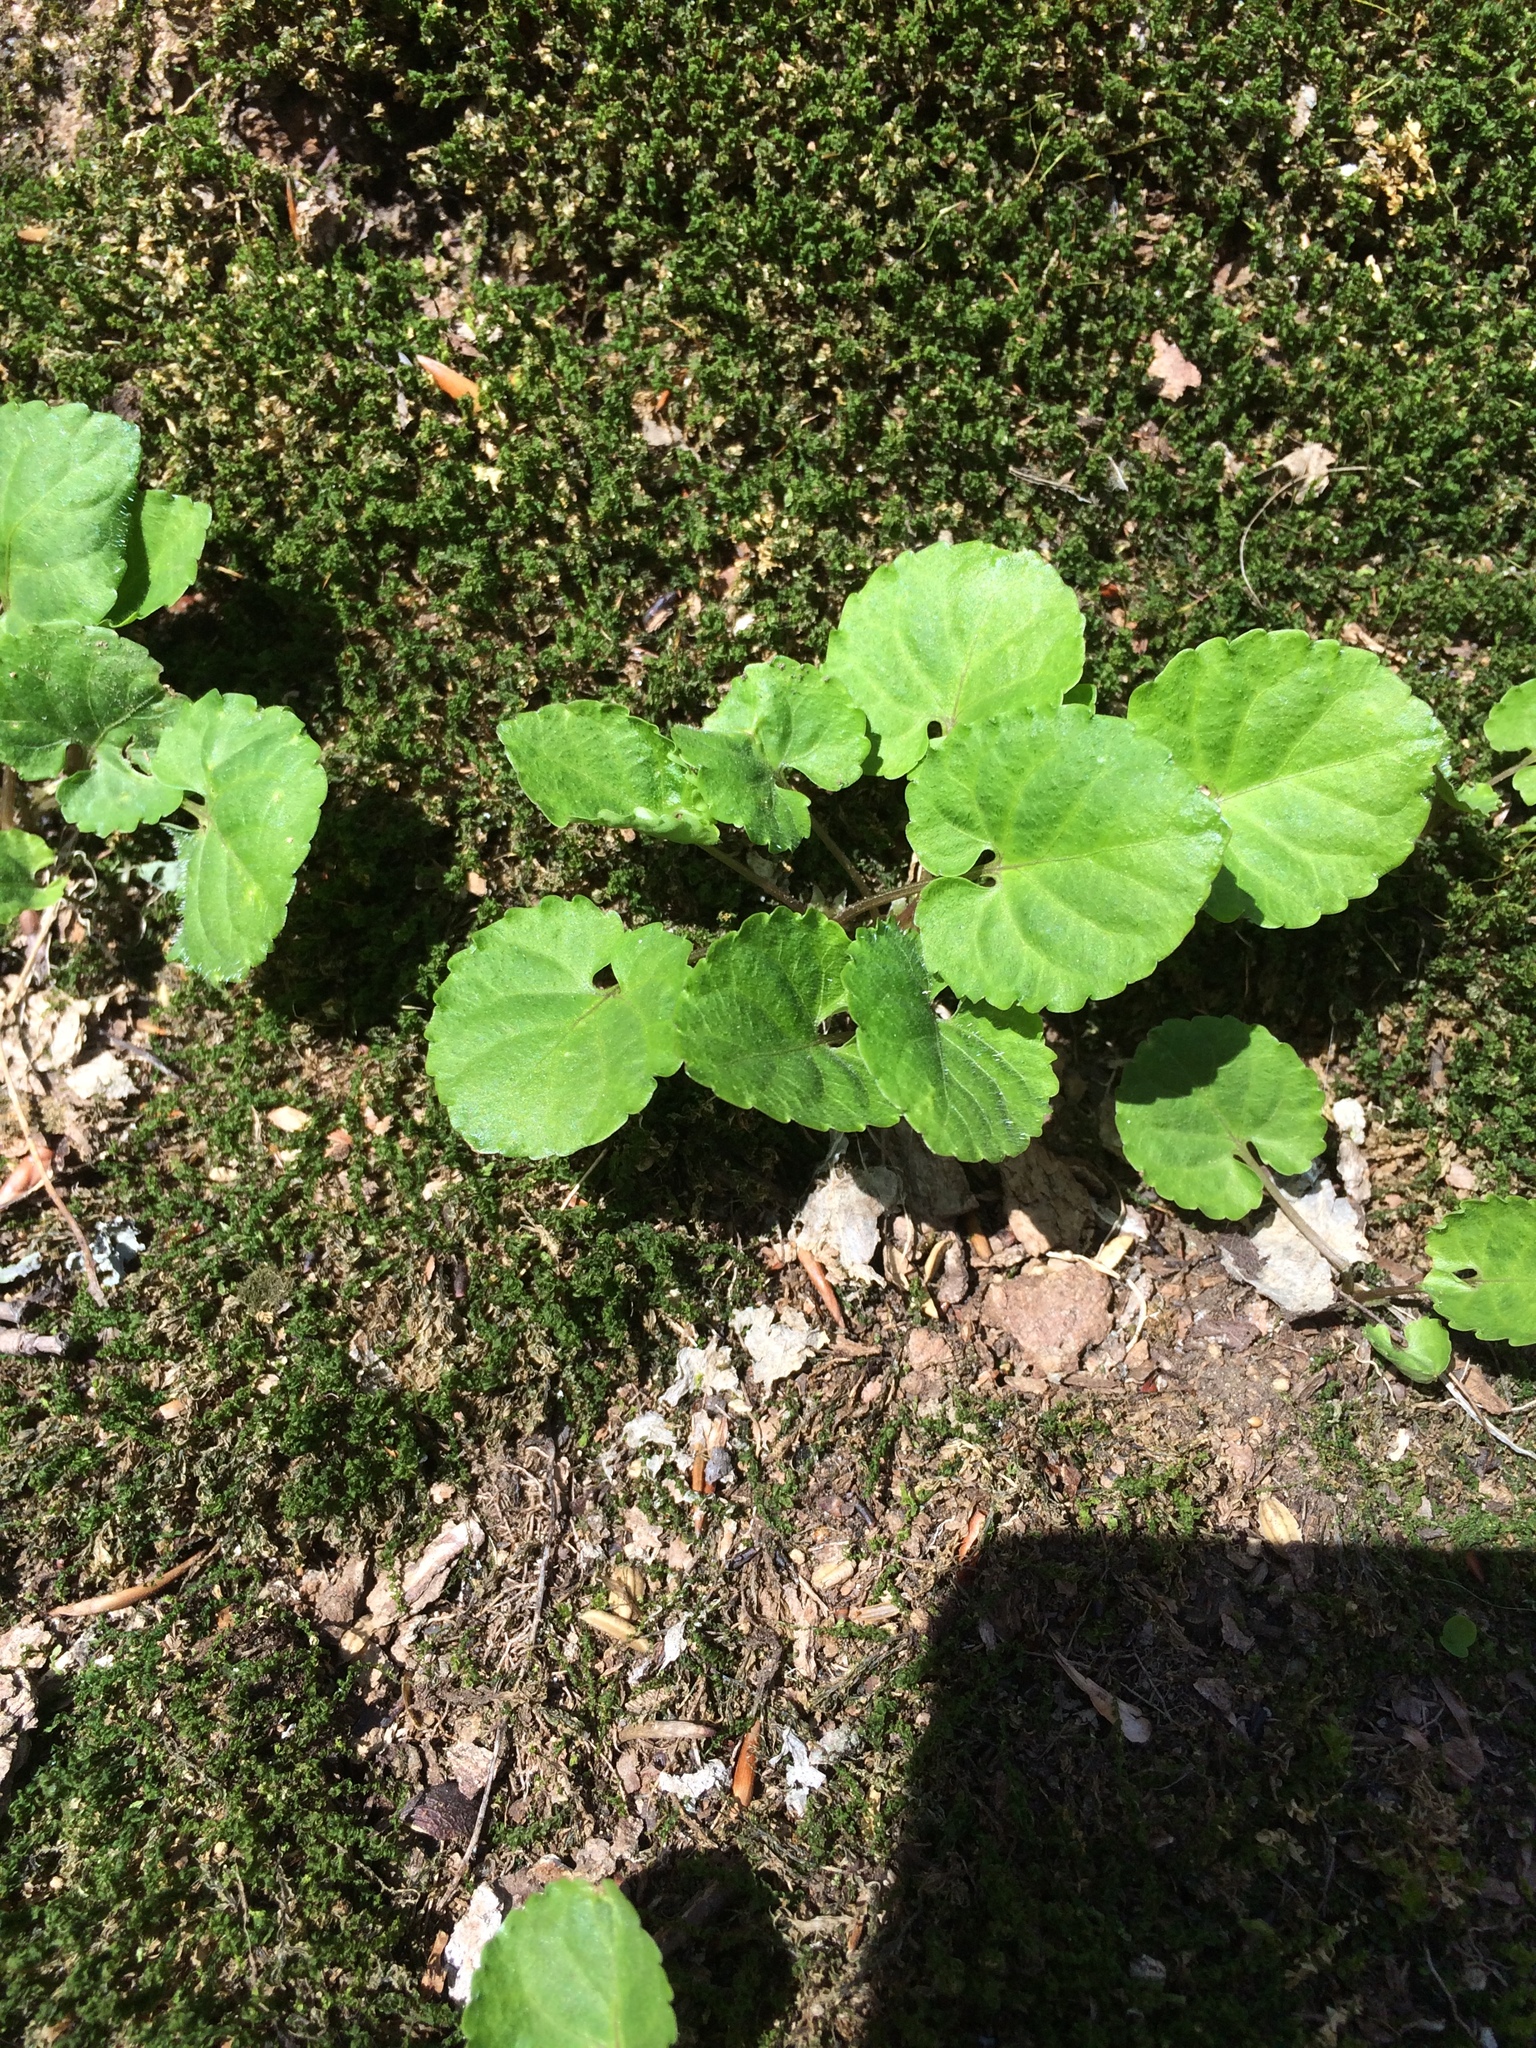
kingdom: Plantae
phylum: Tracheophyta
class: Magnoliopsida
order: Malpighiales
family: Violaceae
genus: Viola
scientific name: Viola selkirkii
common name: Selkirk's violet
